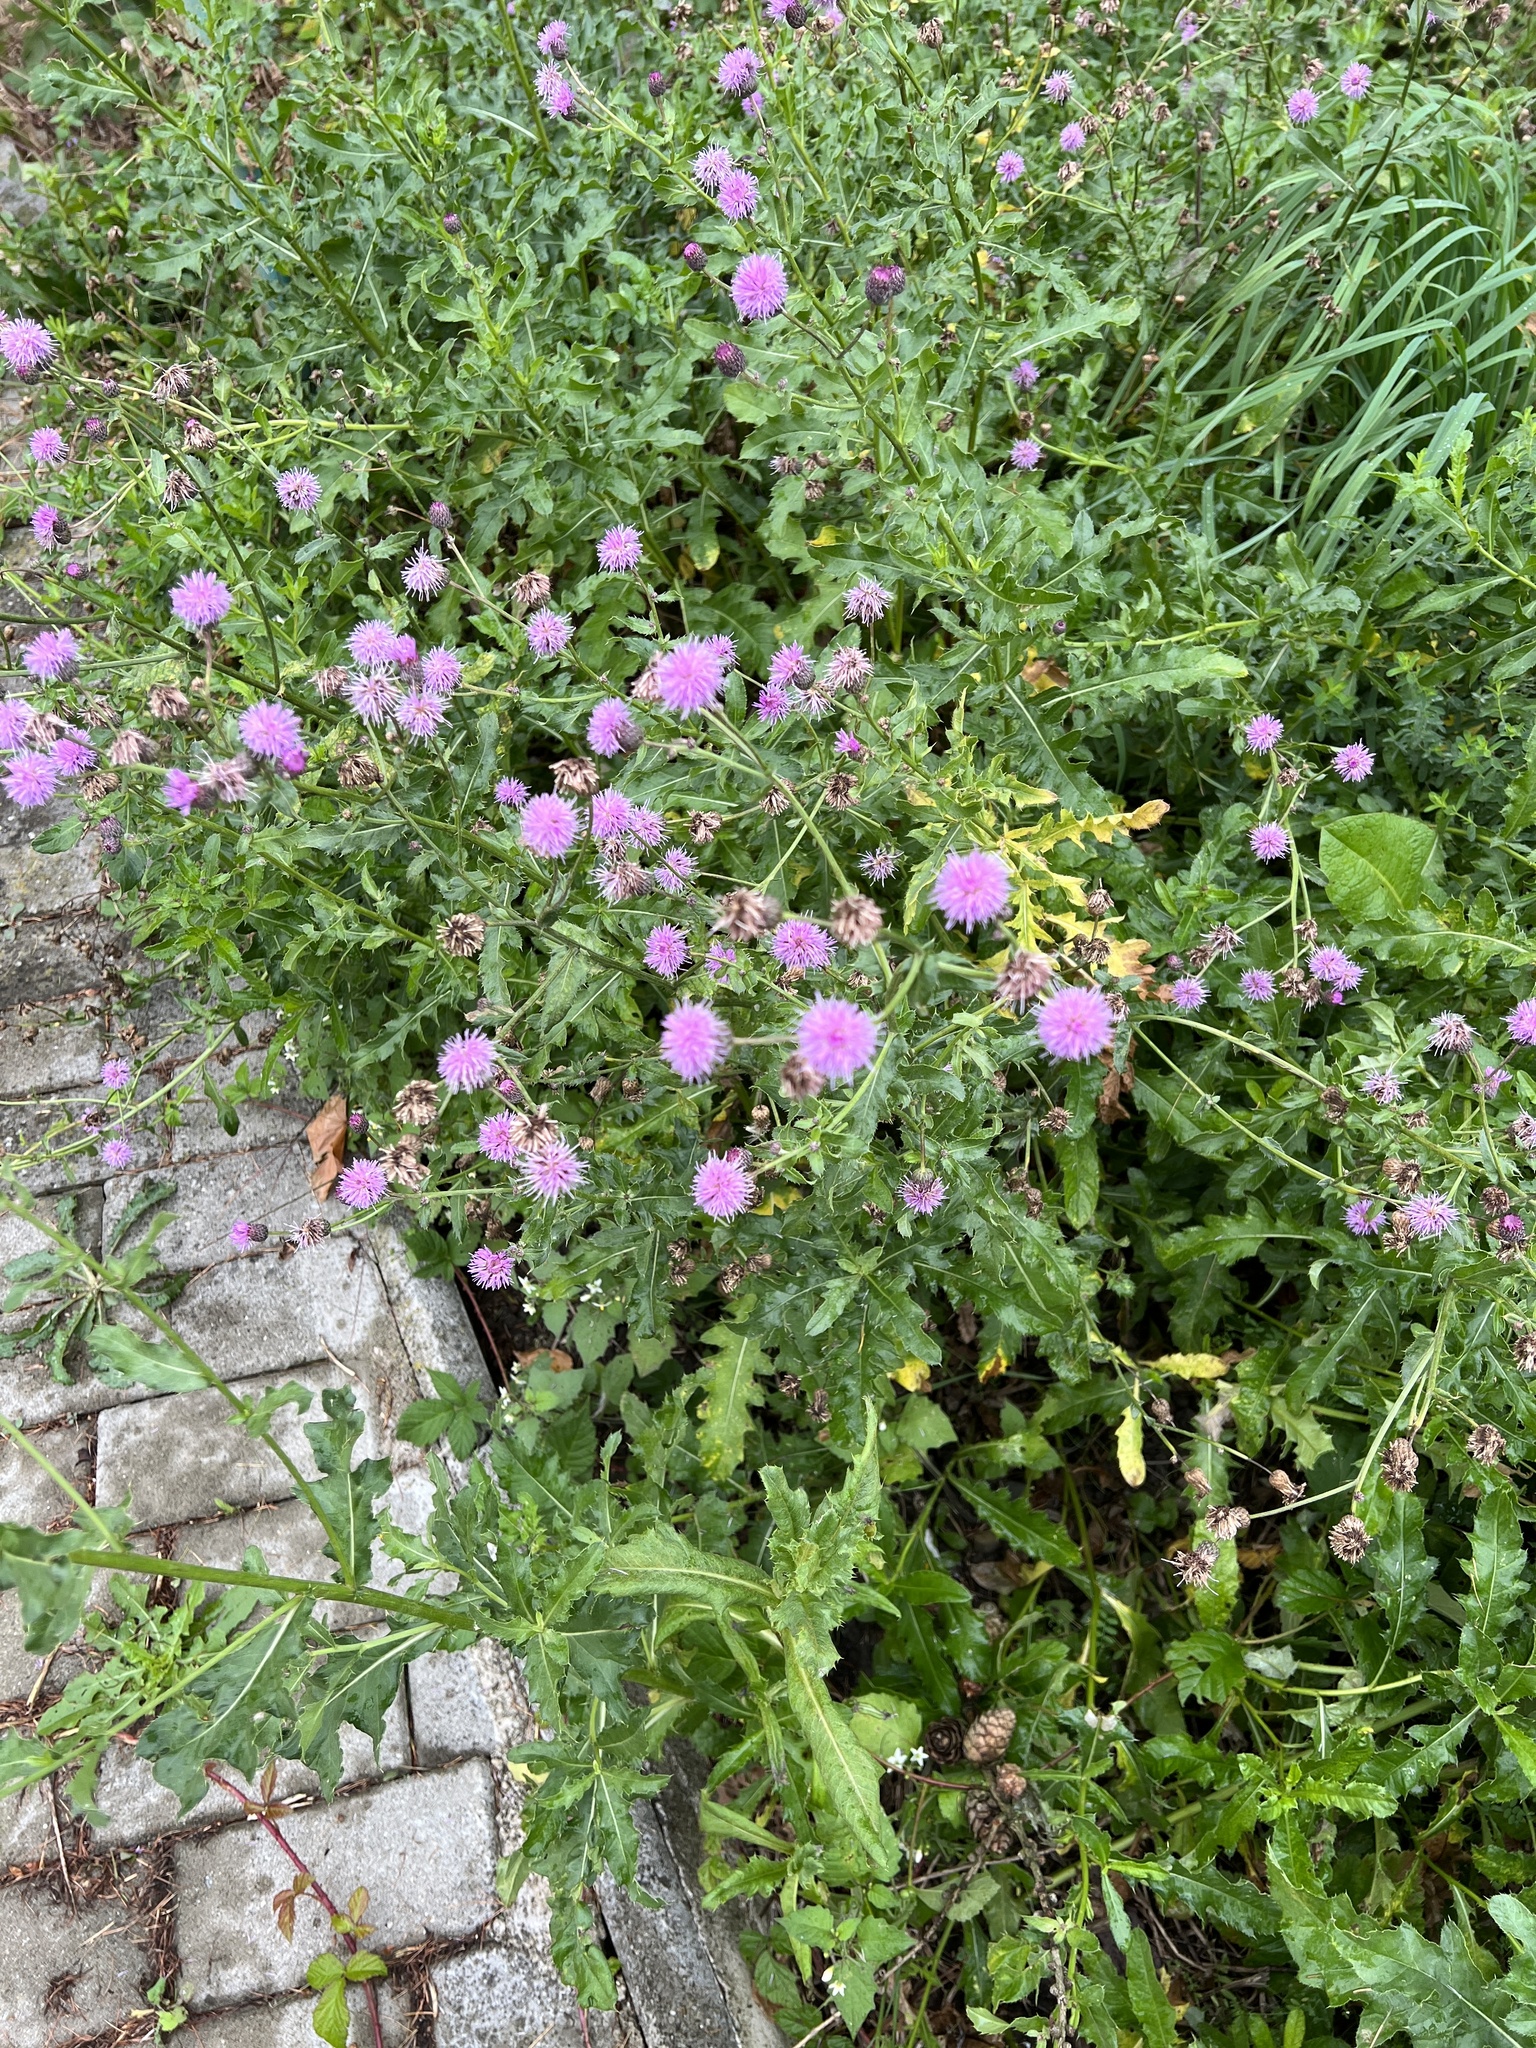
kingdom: Plantae
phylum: Tracheophyta
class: Magnoliopsida
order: Asterales
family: Asteraceae
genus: Cirsium
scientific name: Cirsium arvense
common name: Creeping thistle
